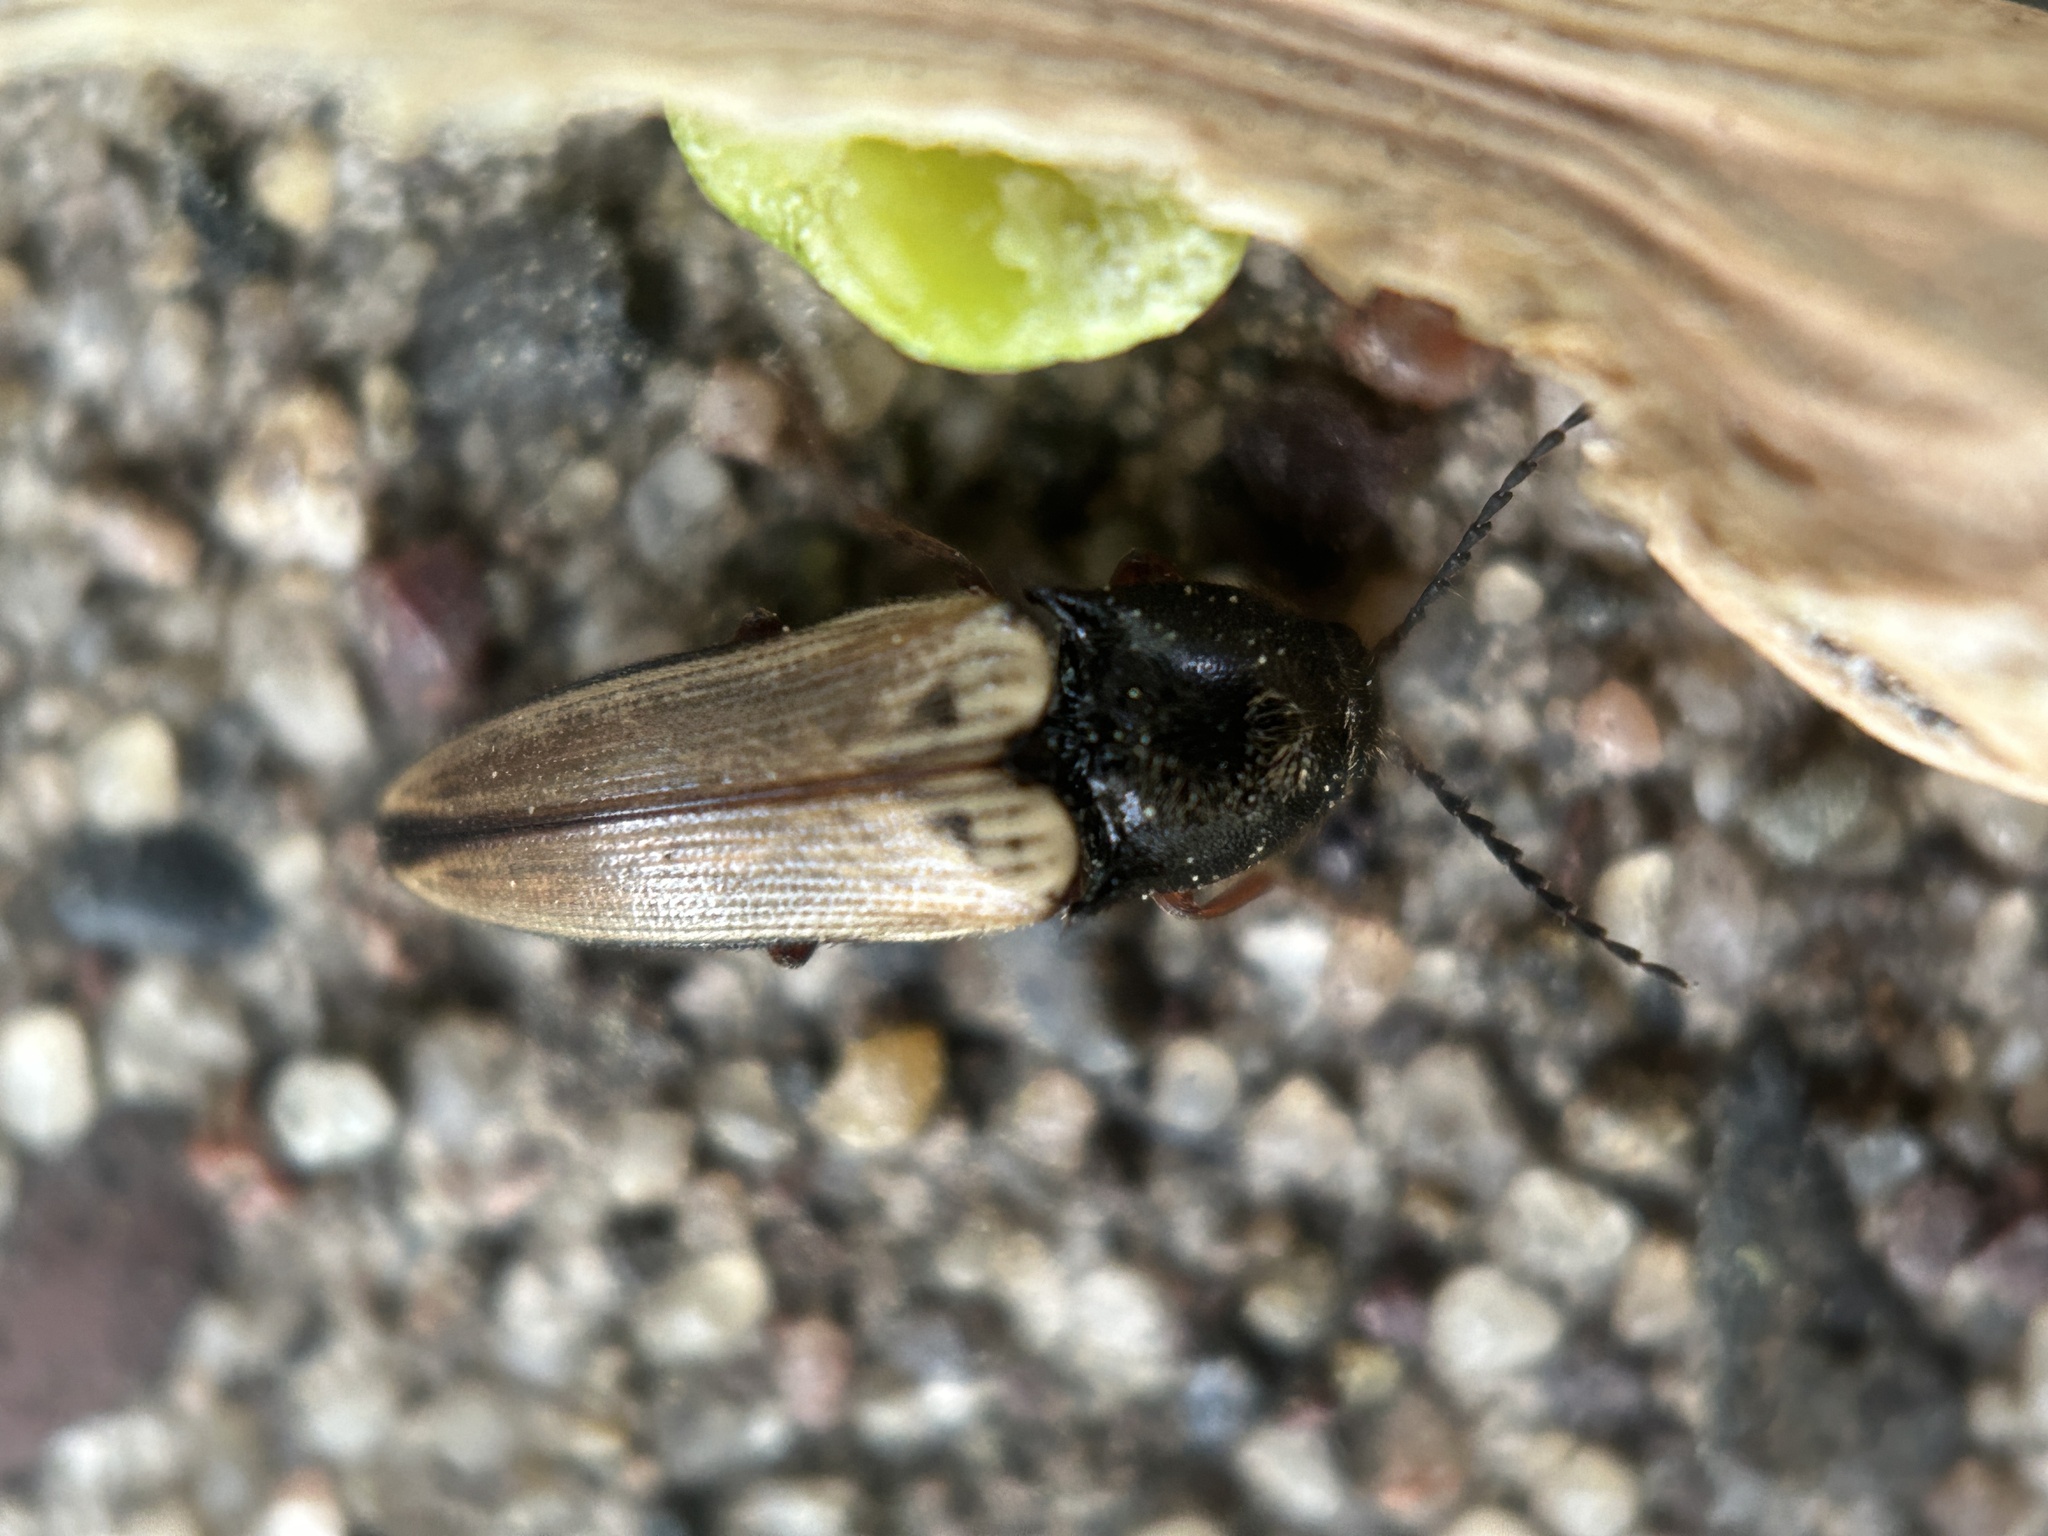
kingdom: Animalia
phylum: Arthropoda
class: Insecta
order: Coleoptera
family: Elateridae
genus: Ampedus
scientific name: Ampedus nigricollis
